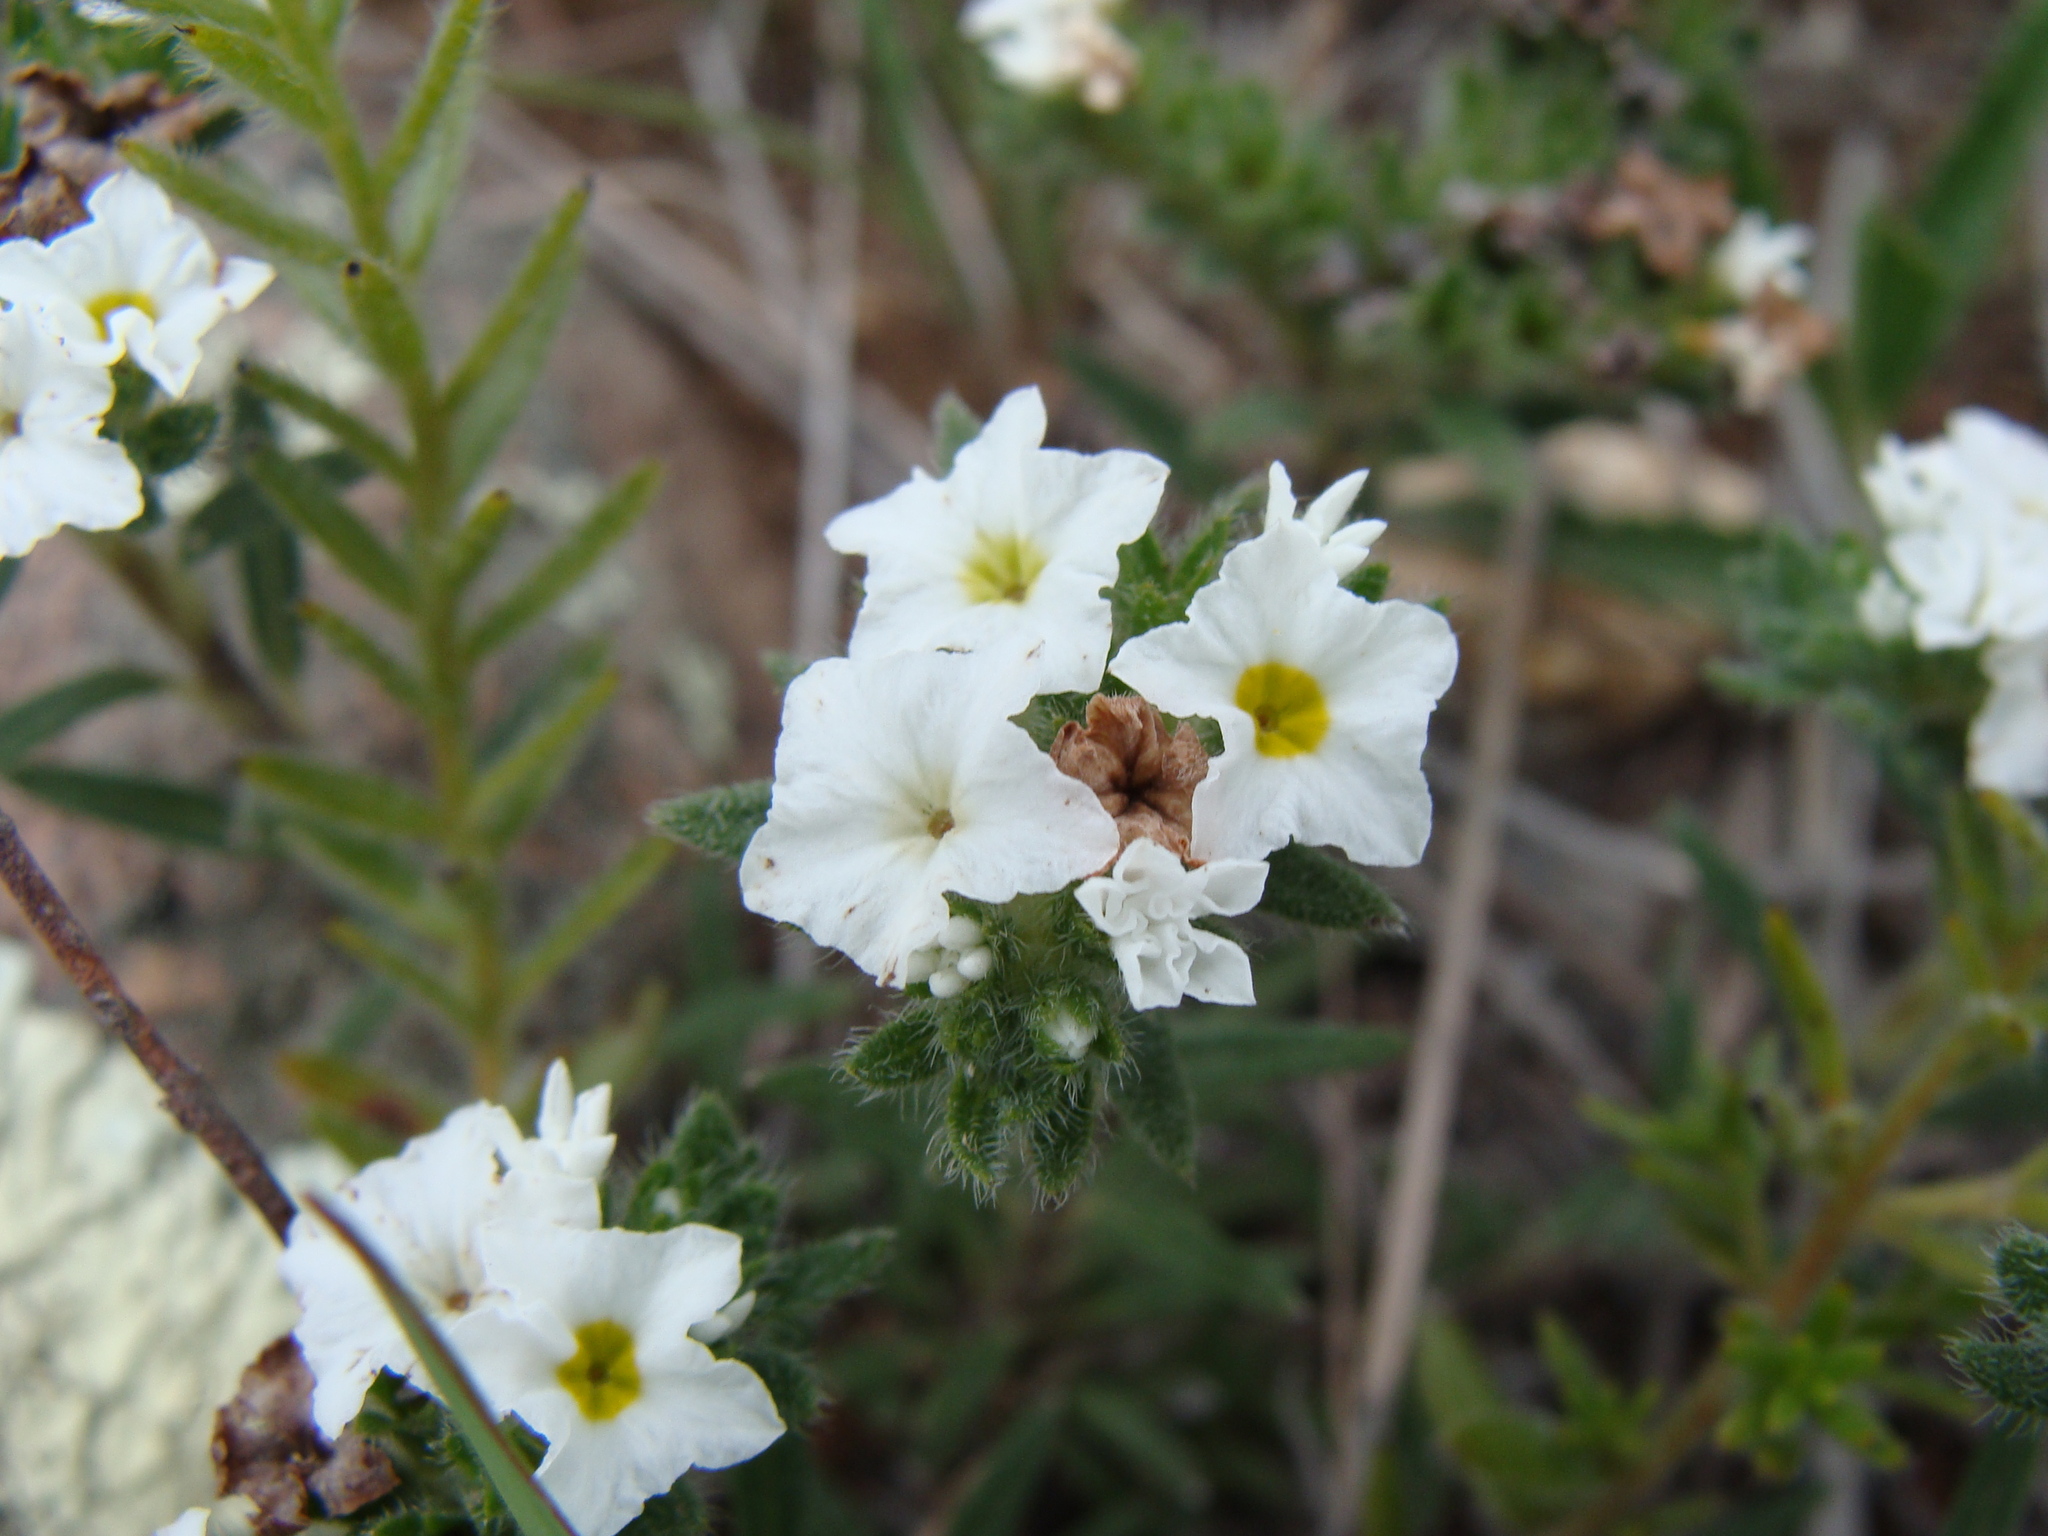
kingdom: Plantae
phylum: Tracheophyta
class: Magnoliopsida
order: Boraginales
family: Heliotropiaceae
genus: Euploca
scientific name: Euploca confertifolia
